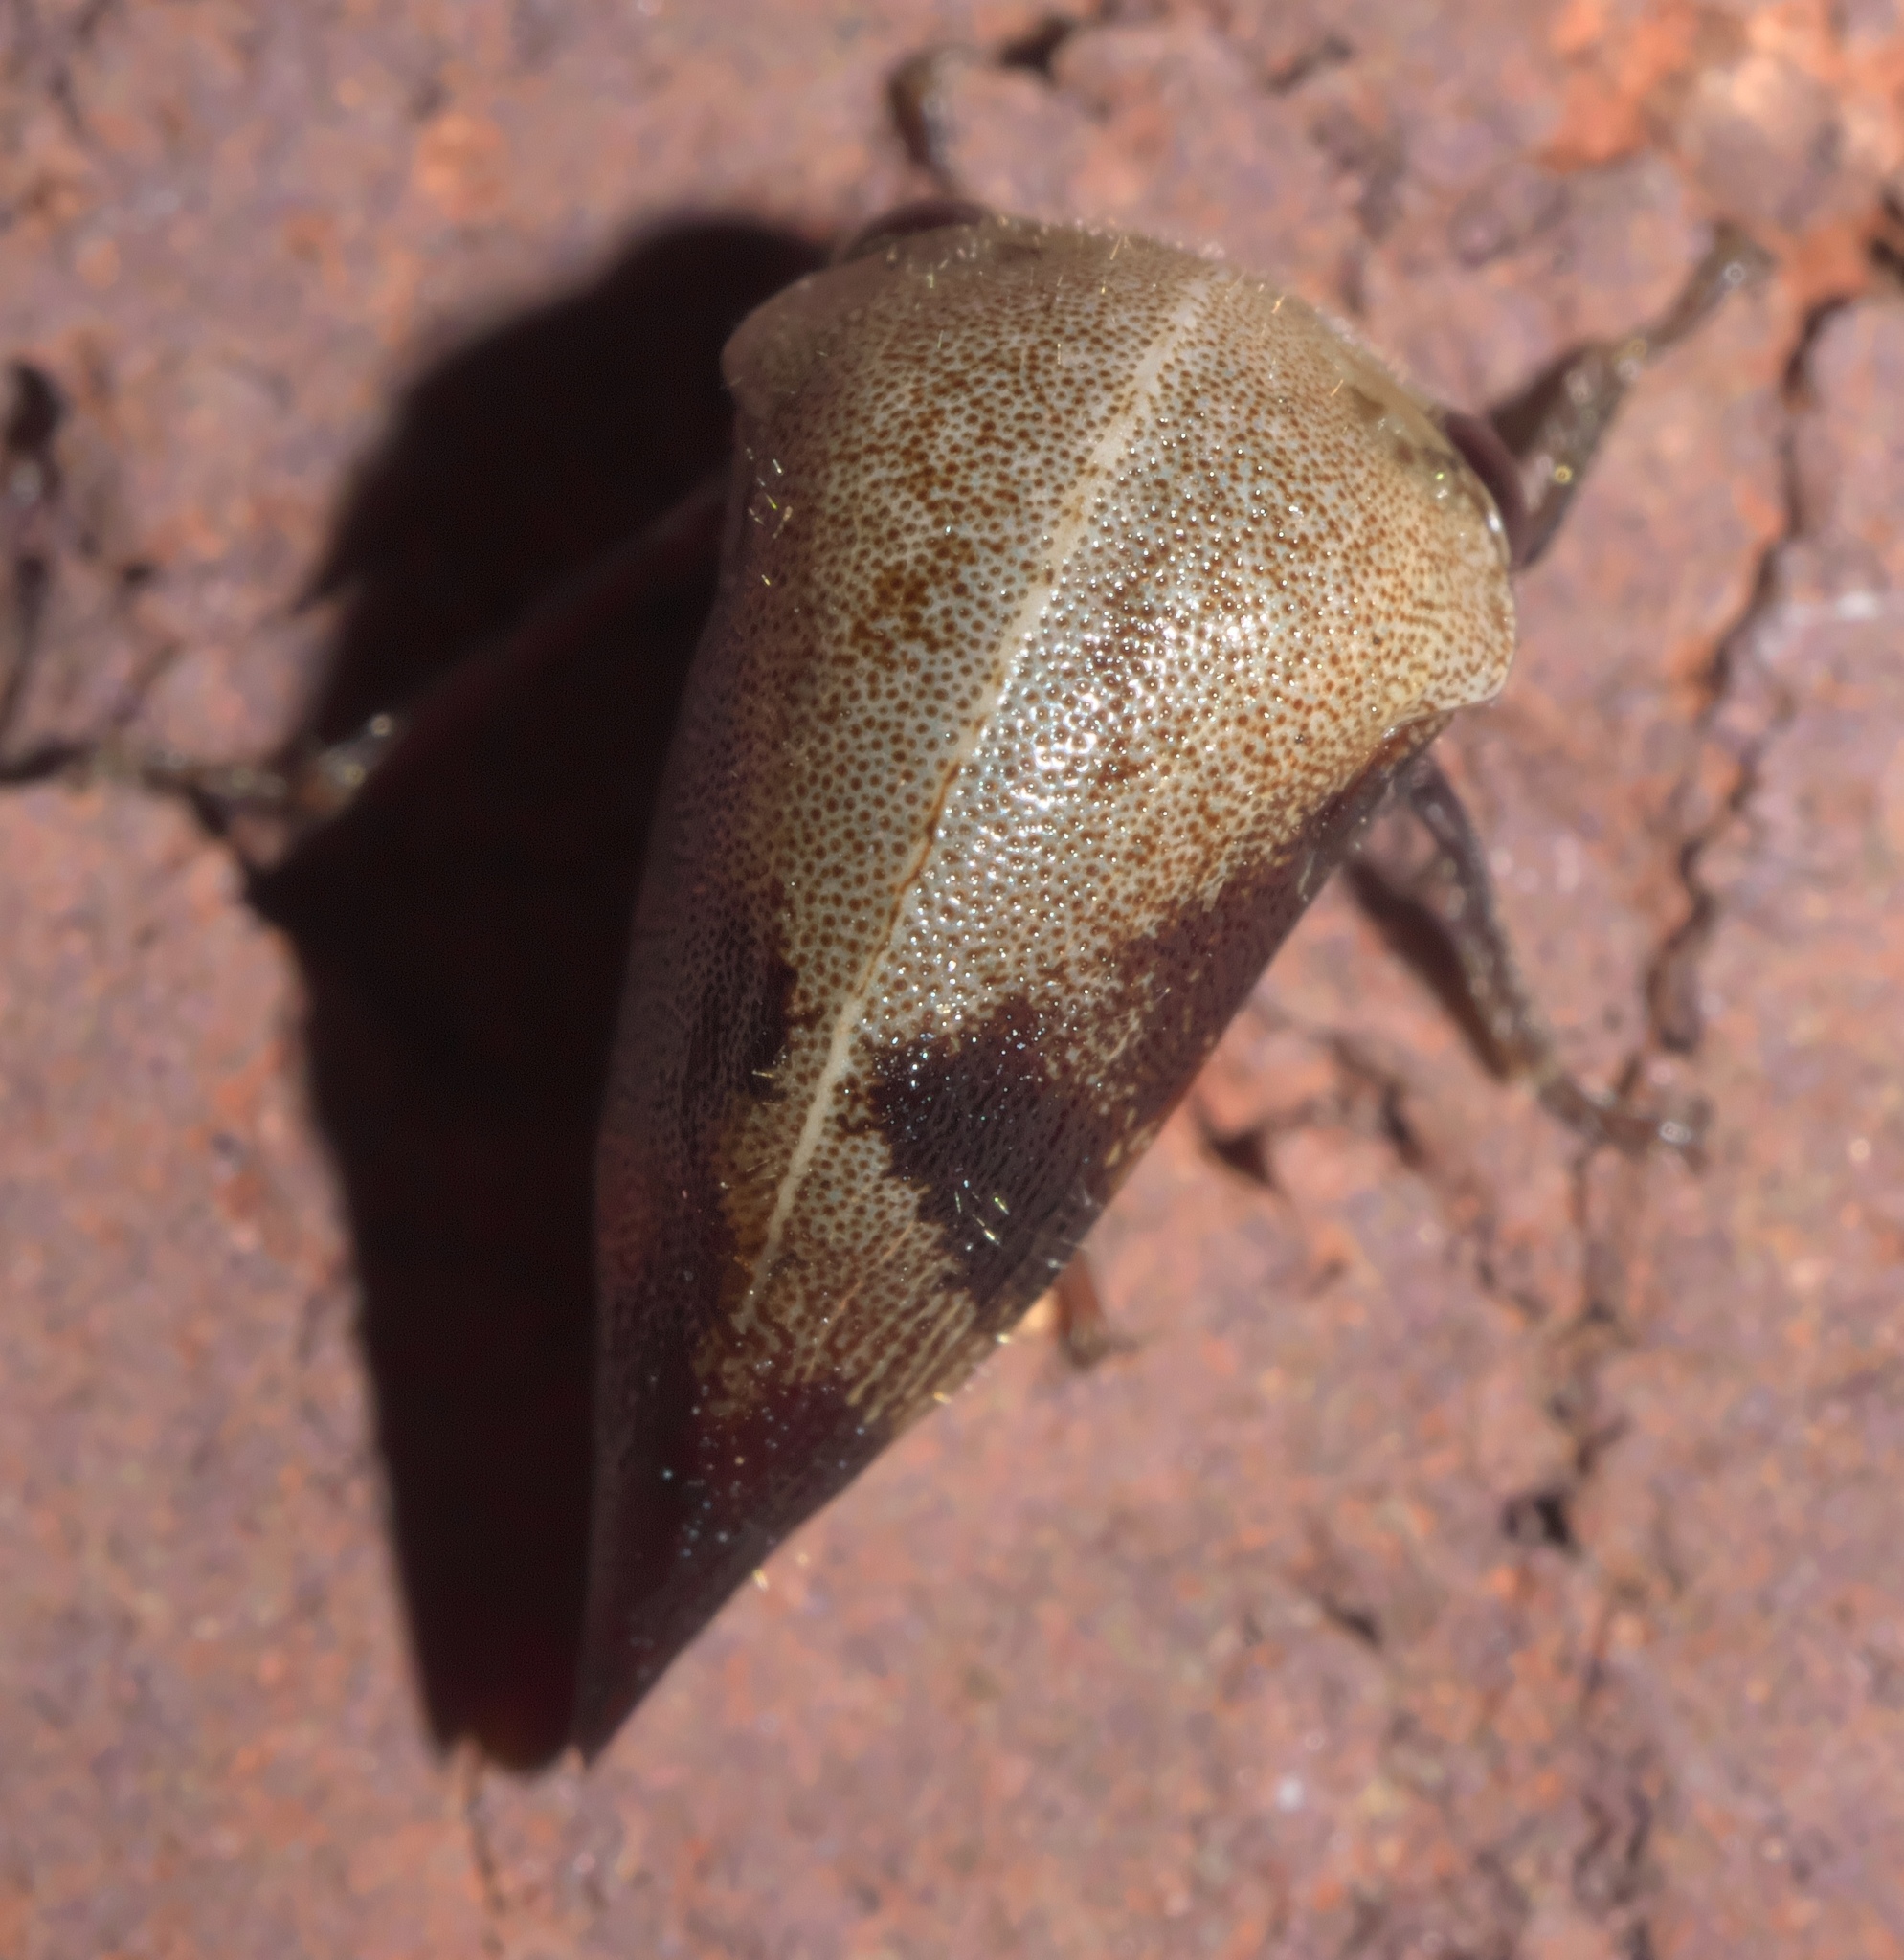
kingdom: Animalia
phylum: Arthropoda
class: Insecta
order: Hemiptera
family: Membracidae
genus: Carynota
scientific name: Carynota mera
